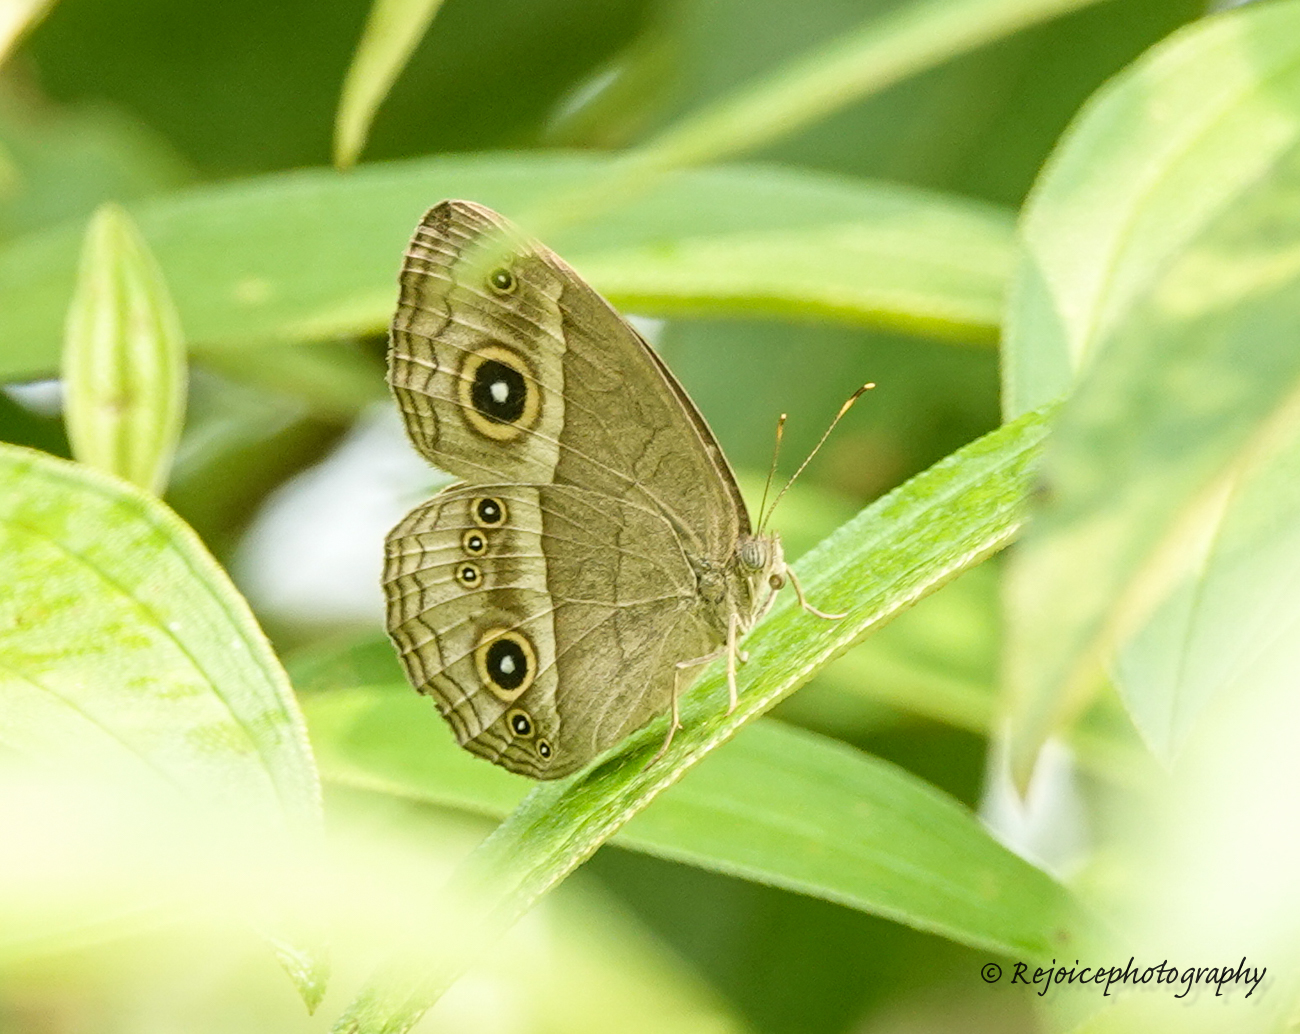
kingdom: Animalia
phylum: Arthropoda
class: Insecta
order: Lepidoptera
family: Nymphalidae
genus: Mycalesis
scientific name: Mycalesis gotama
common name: Chinese bushbrown
